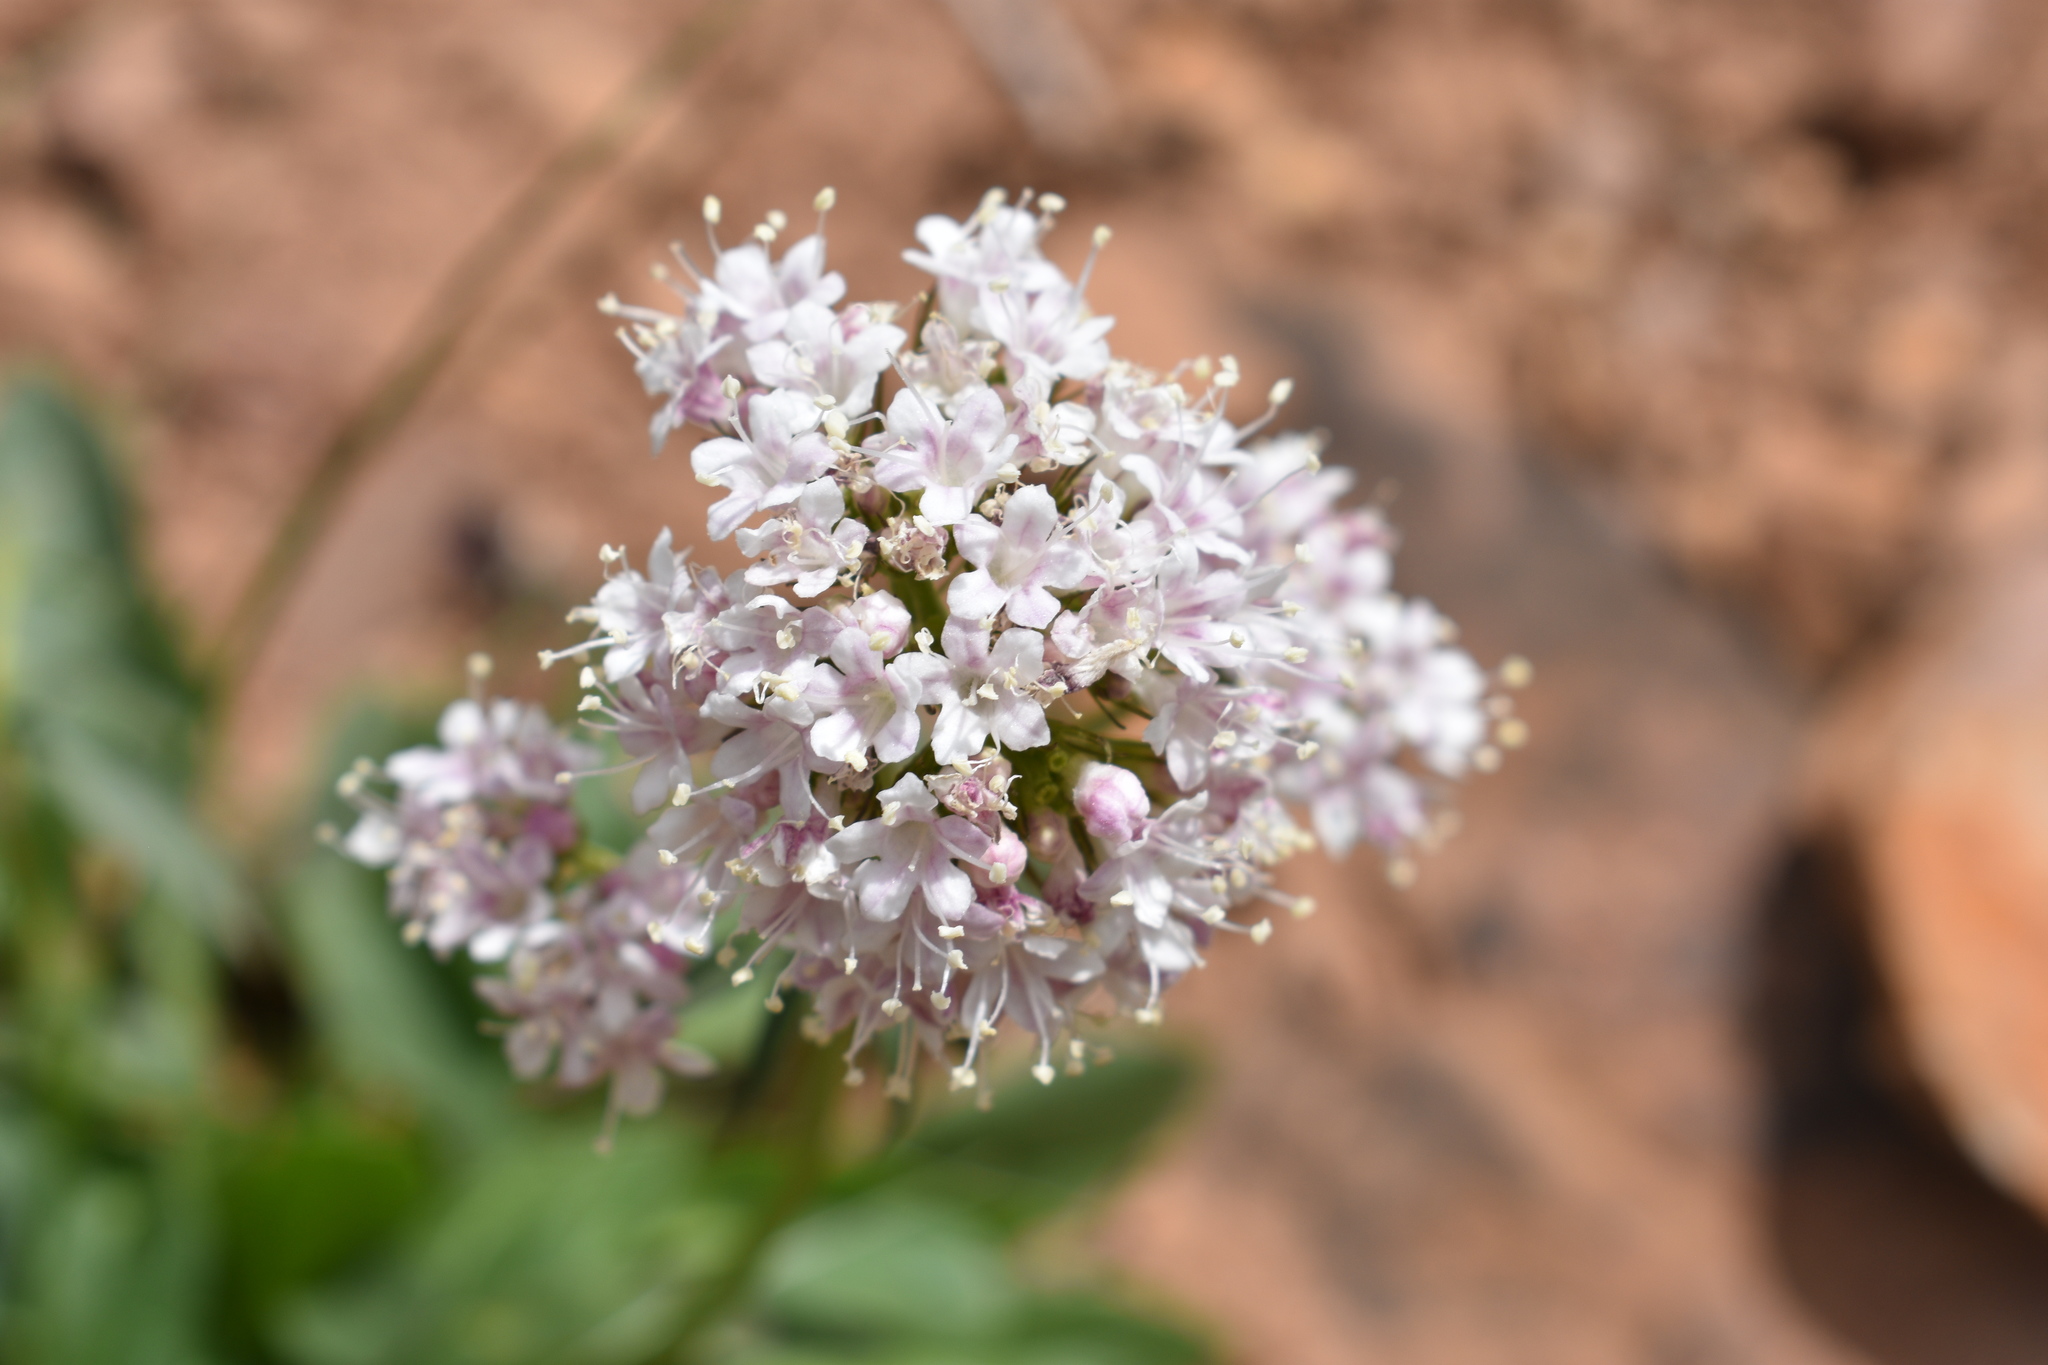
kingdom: Plantae
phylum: Tracheophyta
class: Magnoliopsida
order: Dipsacales
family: Caprifoliaceae
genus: Valeriana
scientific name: Valeriana capitata
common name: Capitate valerian
